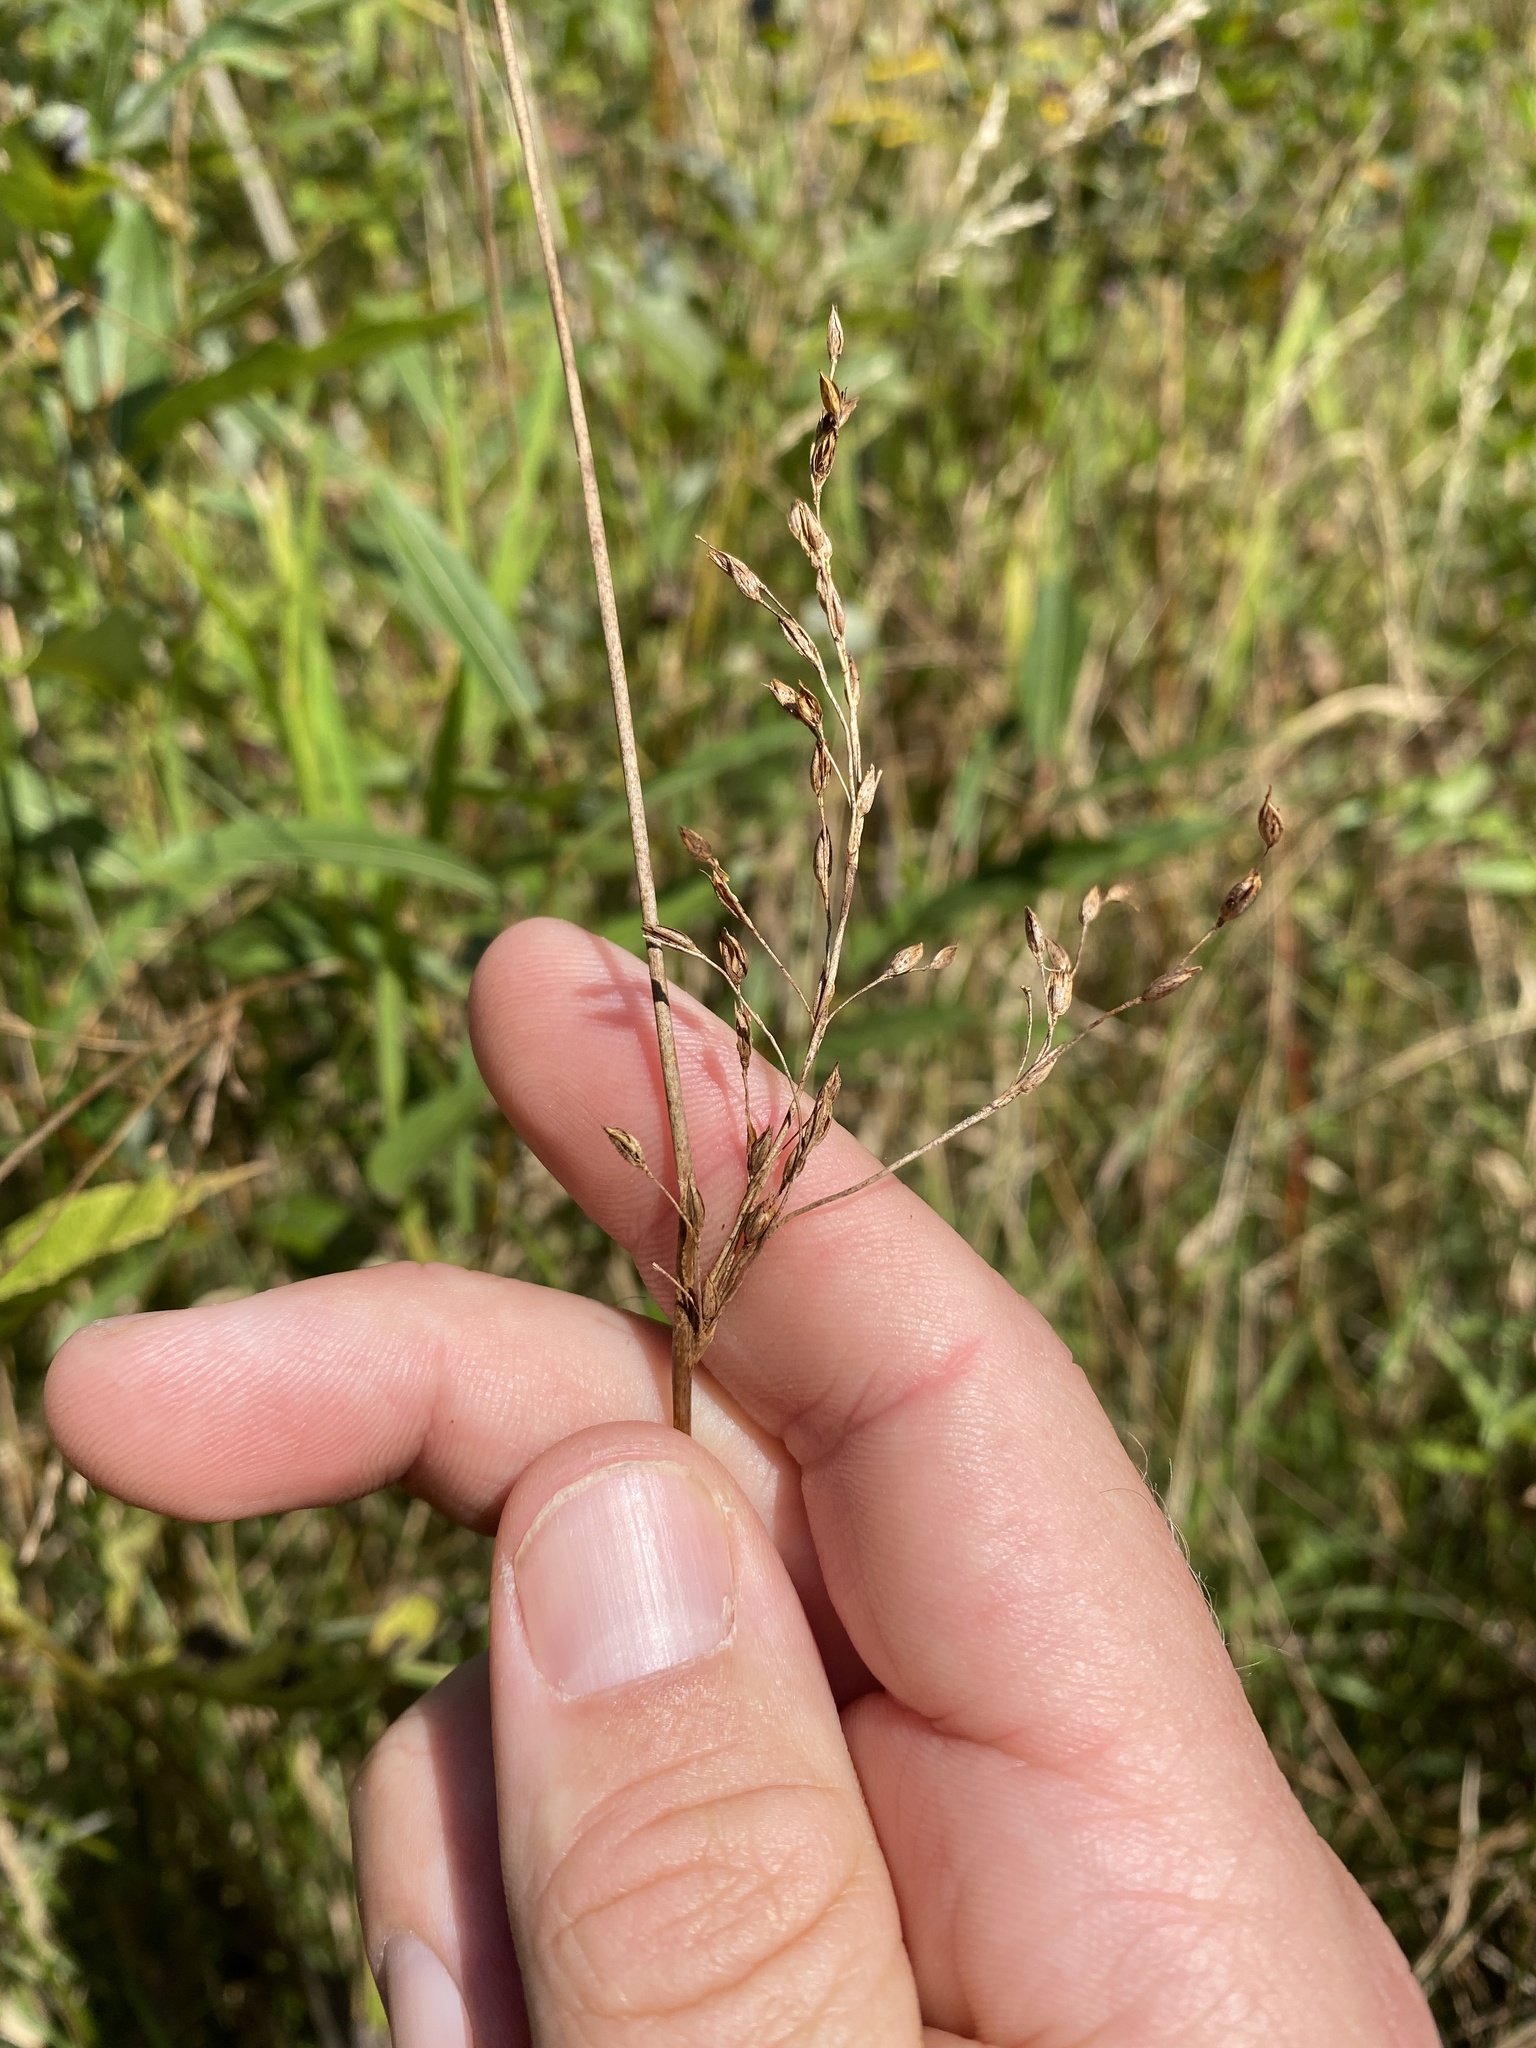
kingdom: Plantae
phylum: Tracheophyta
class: Liliopsida
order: Poales
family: Juncaceae
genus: Juncus
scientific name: Juncus balticus
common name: Baltic rush
